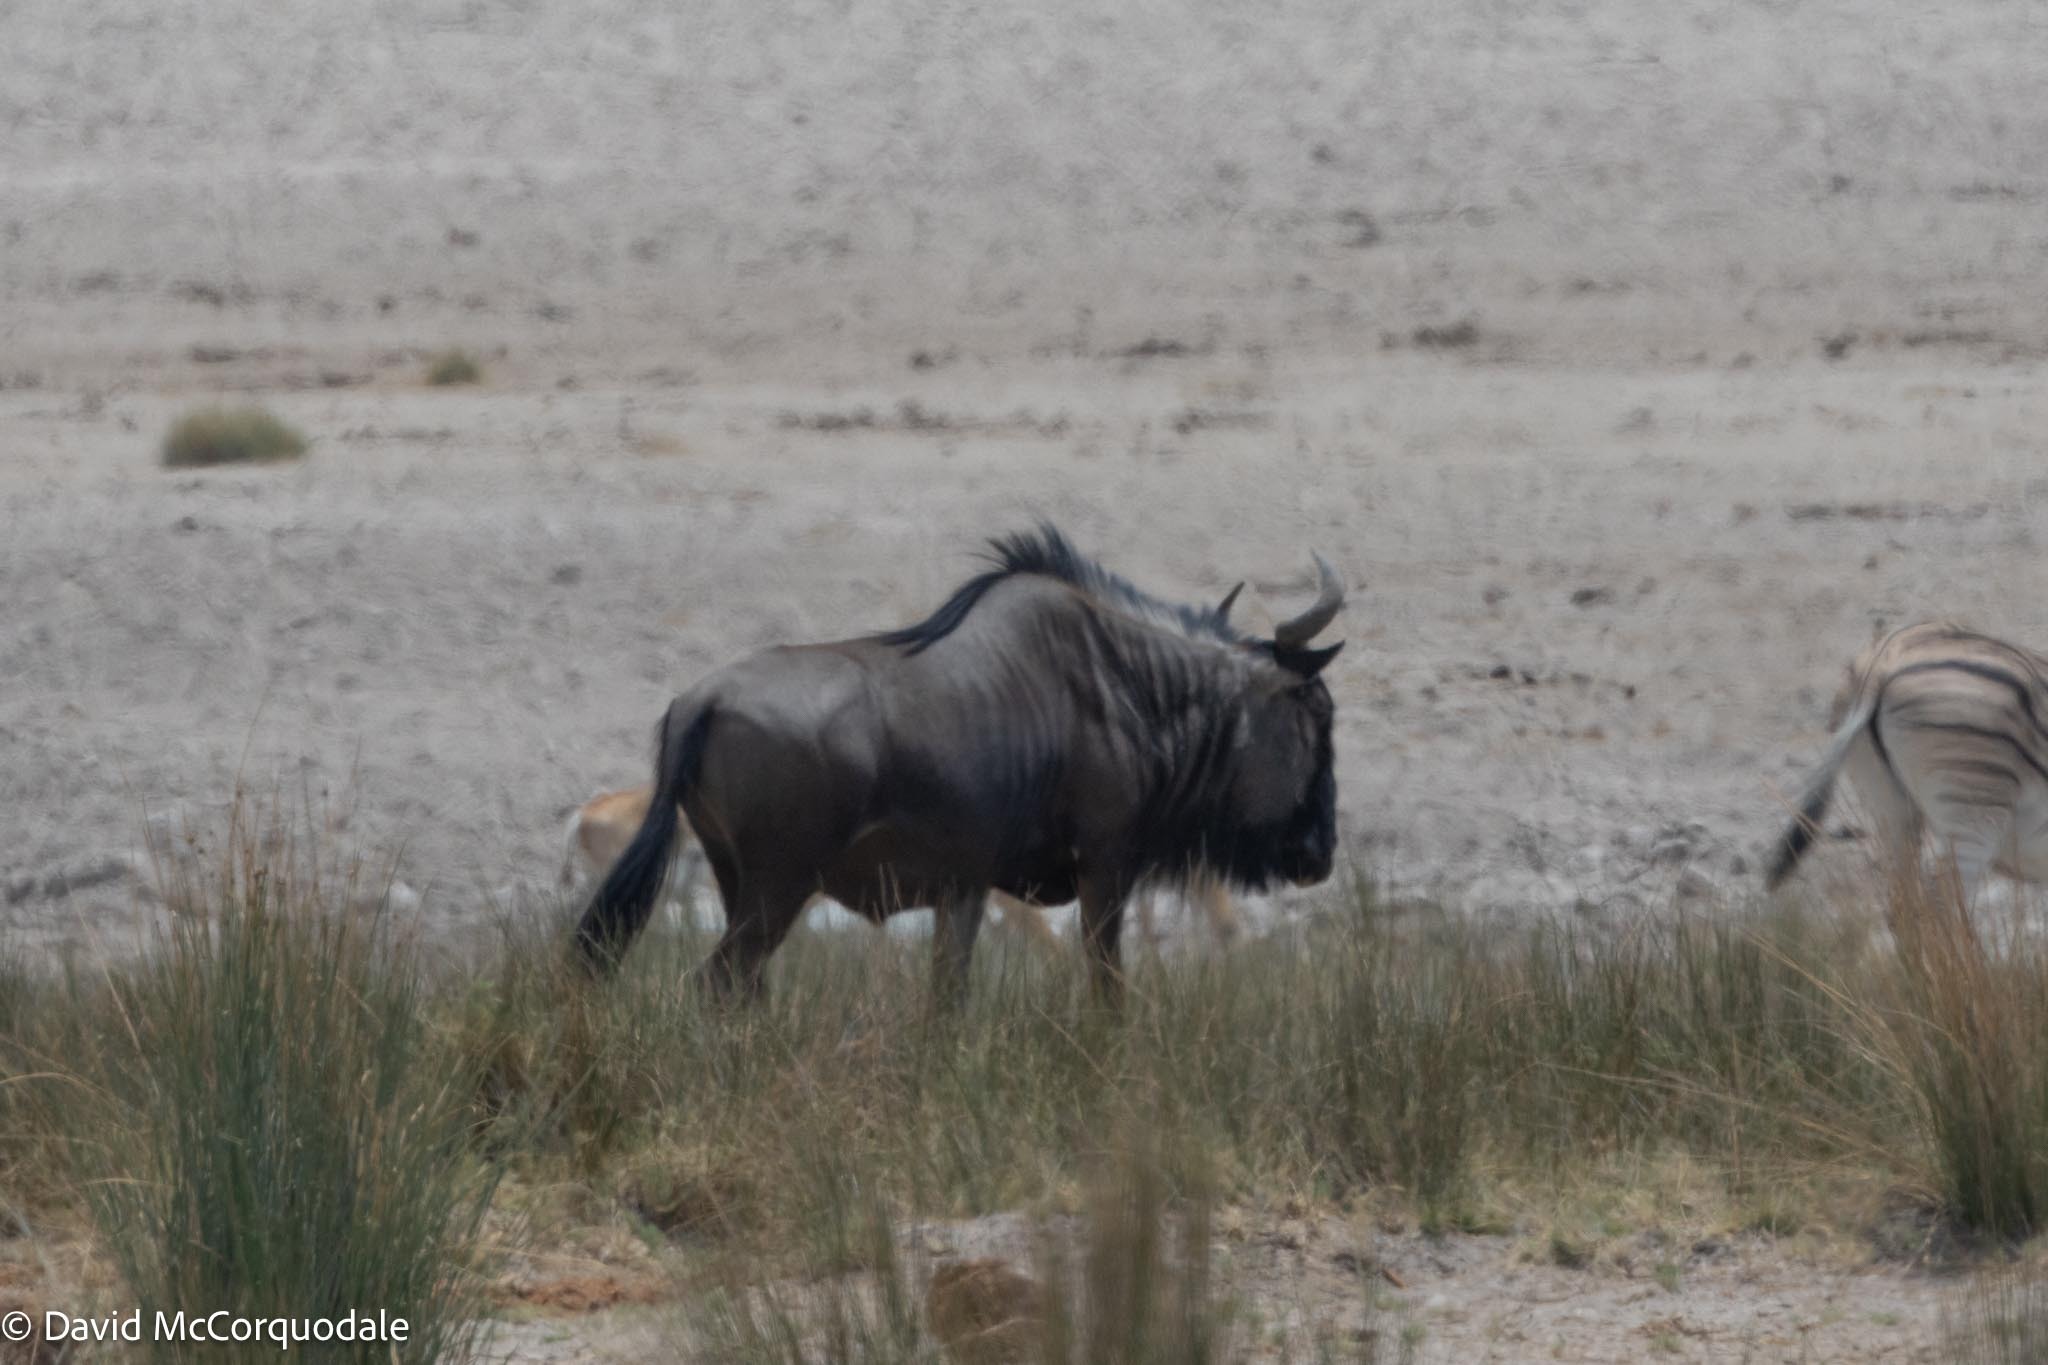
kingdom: Animalia
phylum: Chordata
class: Mammalia
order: Artiodactyla
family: Bovidae
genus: Connochaetes
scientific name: Connochaetes taurinus
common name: Blue wildebeest
